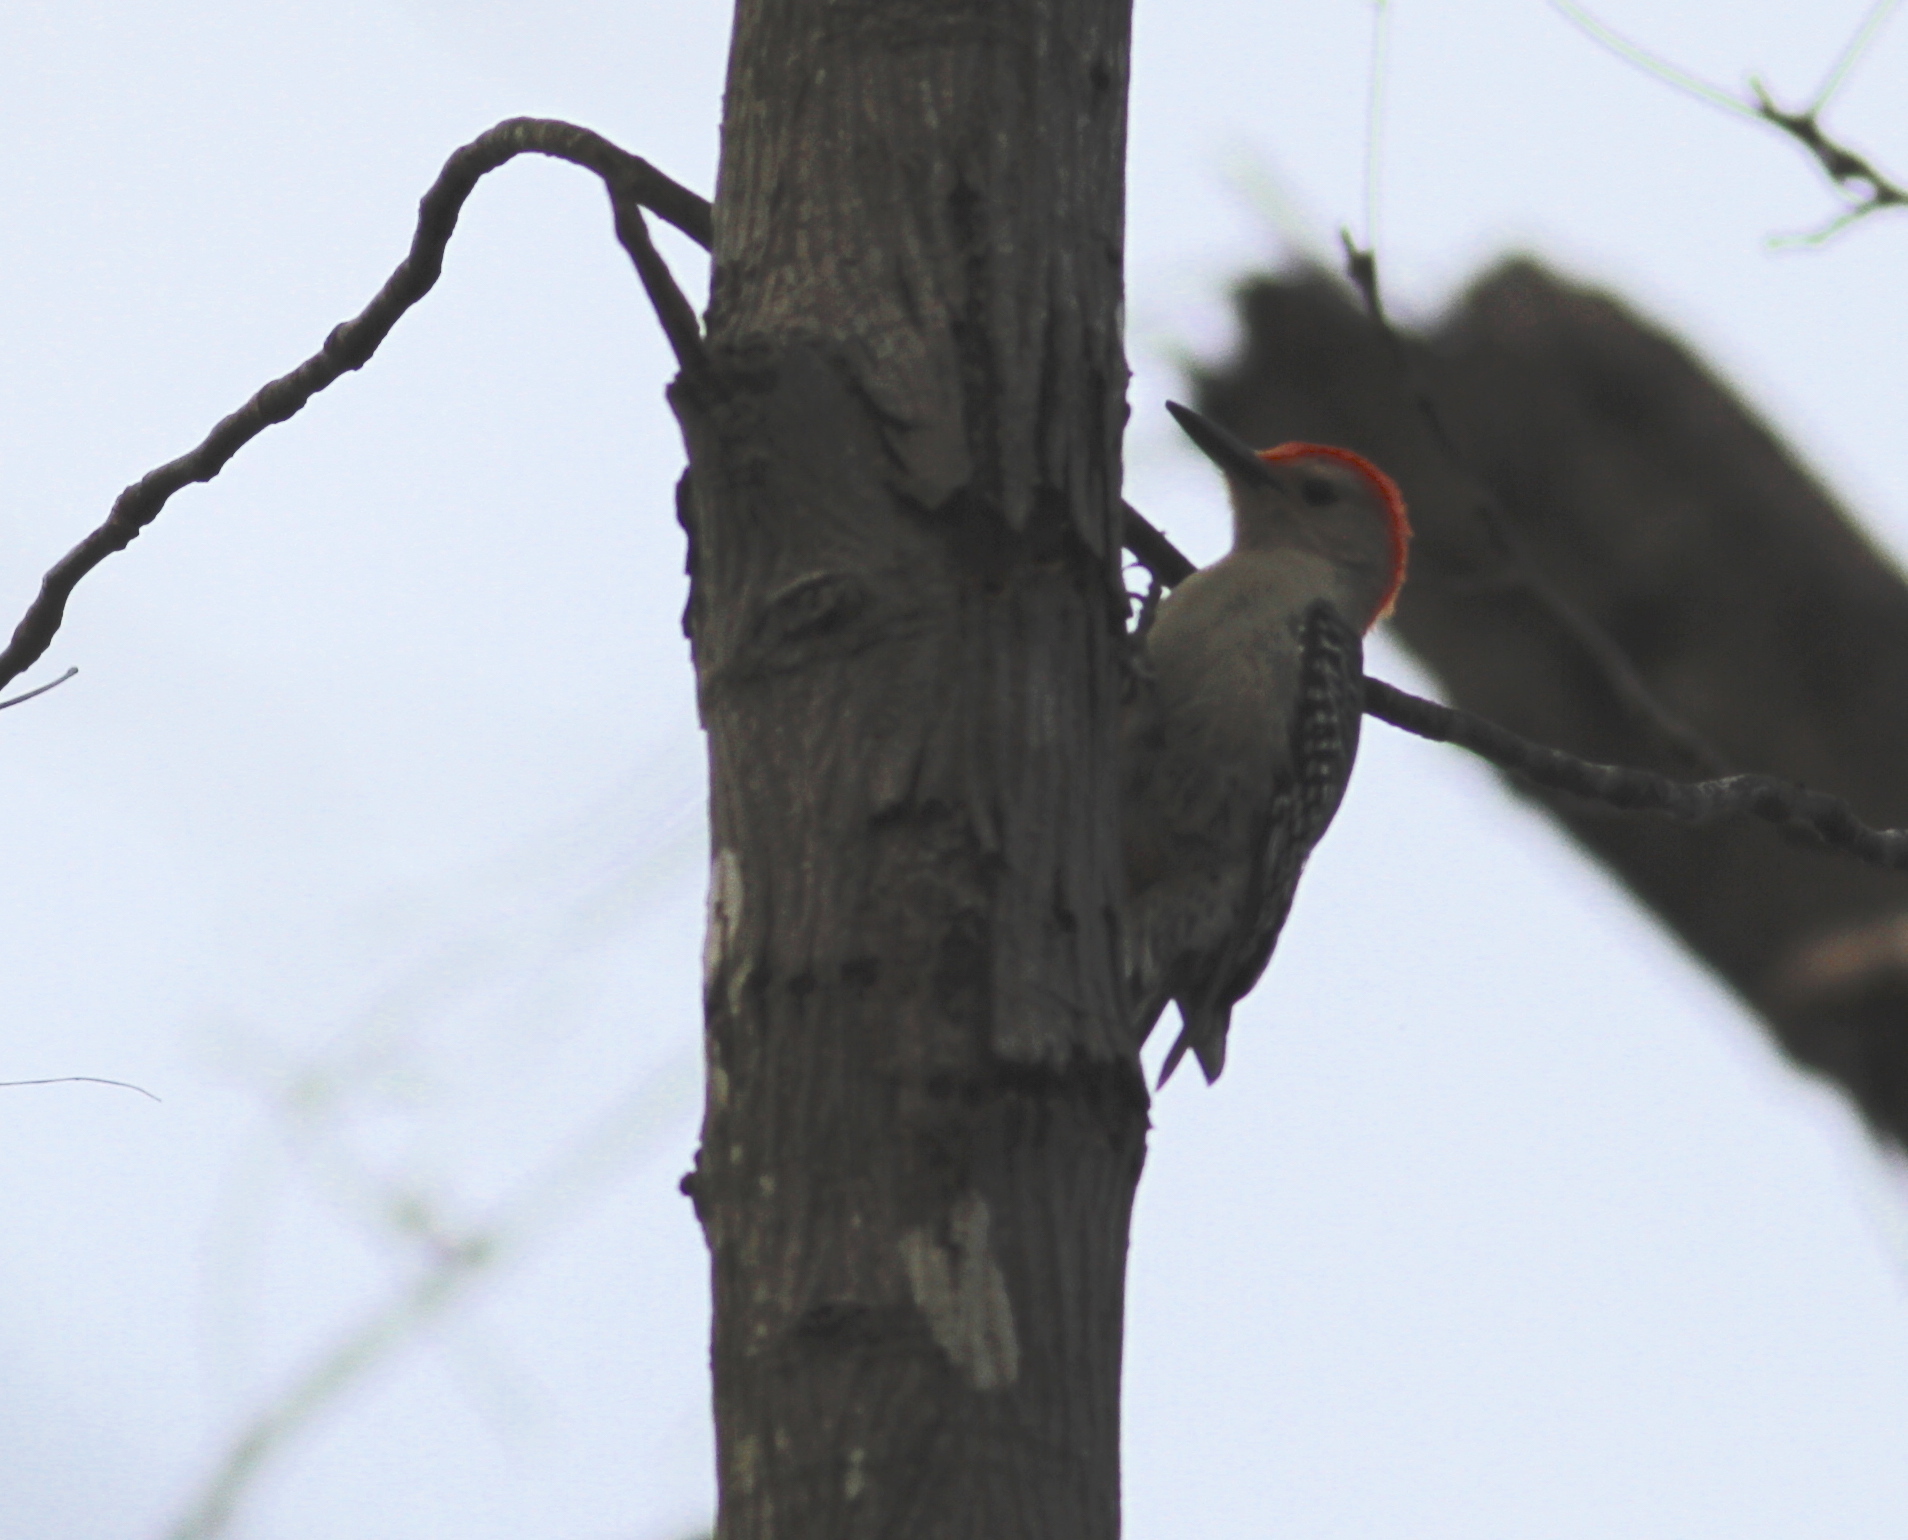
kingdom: Animalia
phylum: Chordata
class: Aves
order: Piciformes
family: Picidae
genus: Melanerpes
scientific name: Melanerpes carolinus
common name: Red-bellied woodpecker
